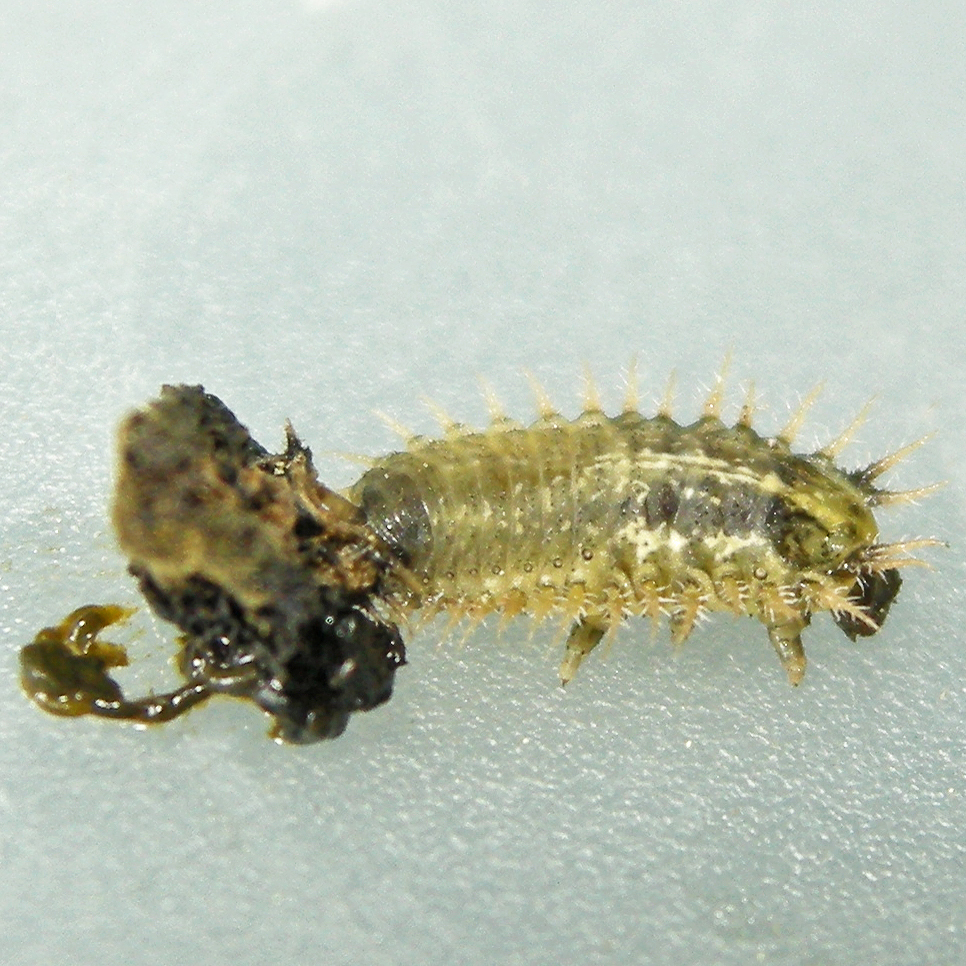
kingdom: Animalia
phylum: Arthropoda
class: Insecta
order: Coleoptera
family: Chrysomelidae
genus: Cassida
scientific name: Cassida rubiginosa
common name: Thistle tortoise beetle
